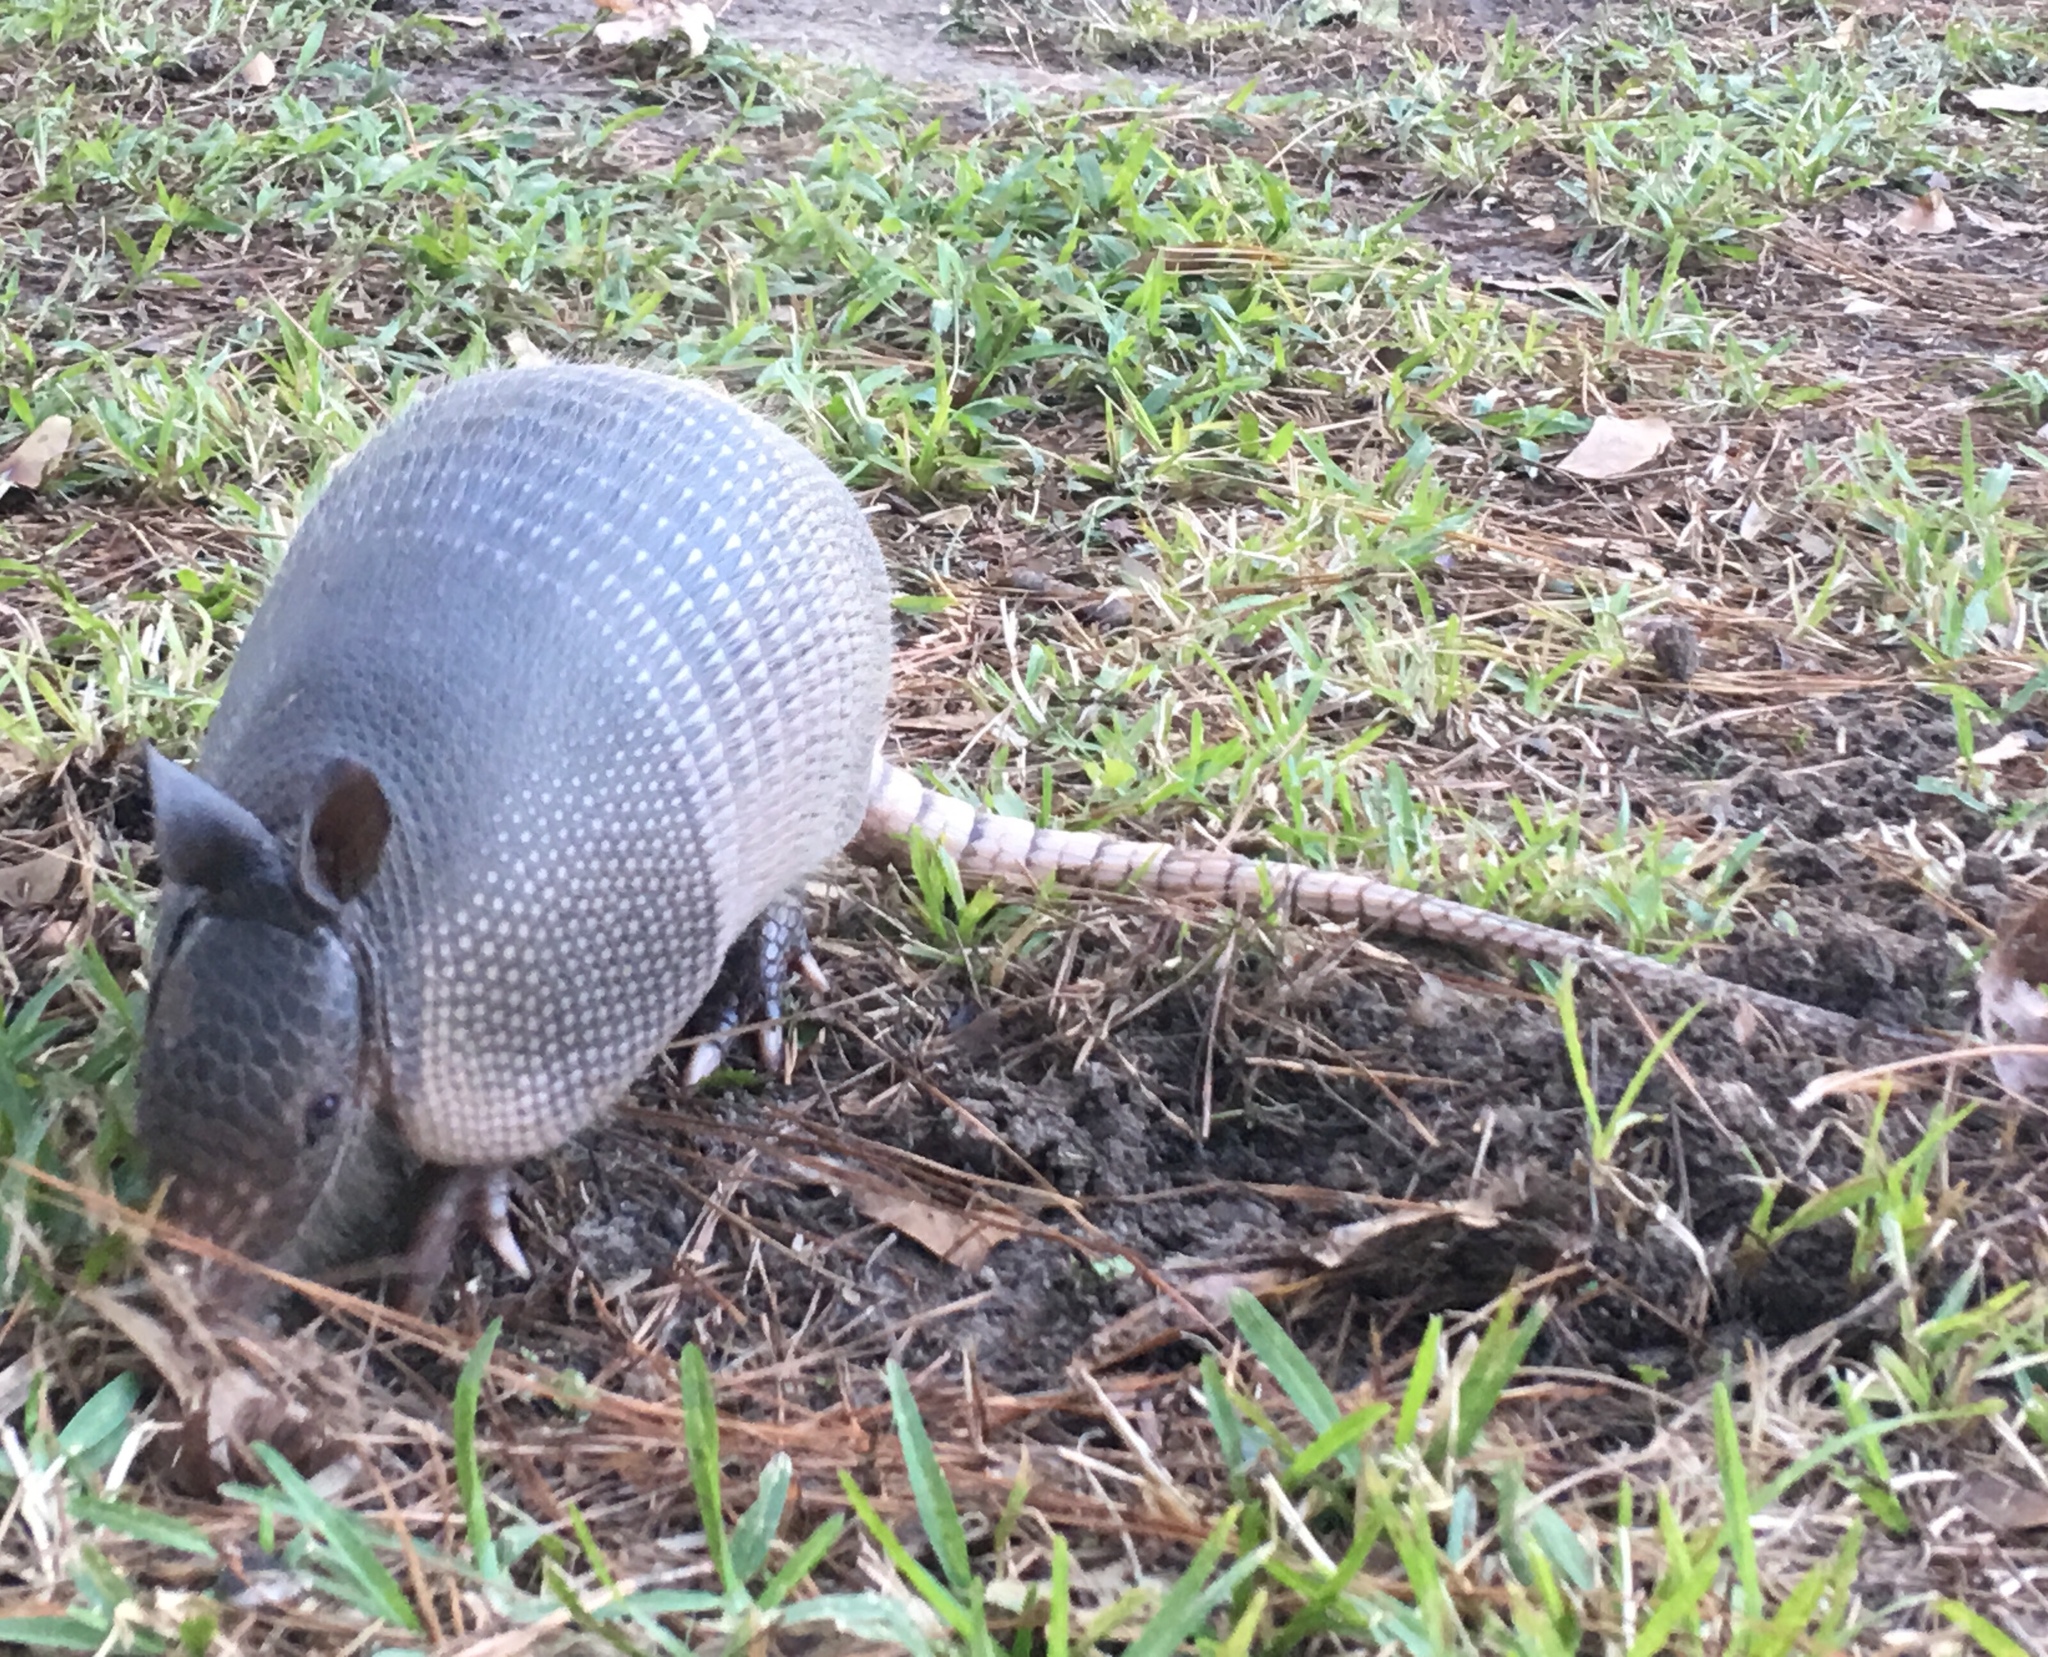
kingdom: Animalia
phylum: Chordata
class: Mammalia
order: Cingulata
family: Dasypodidae
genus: Dasypus
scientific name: Dasypus novemcinctus
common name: Nine-banded armadillo
